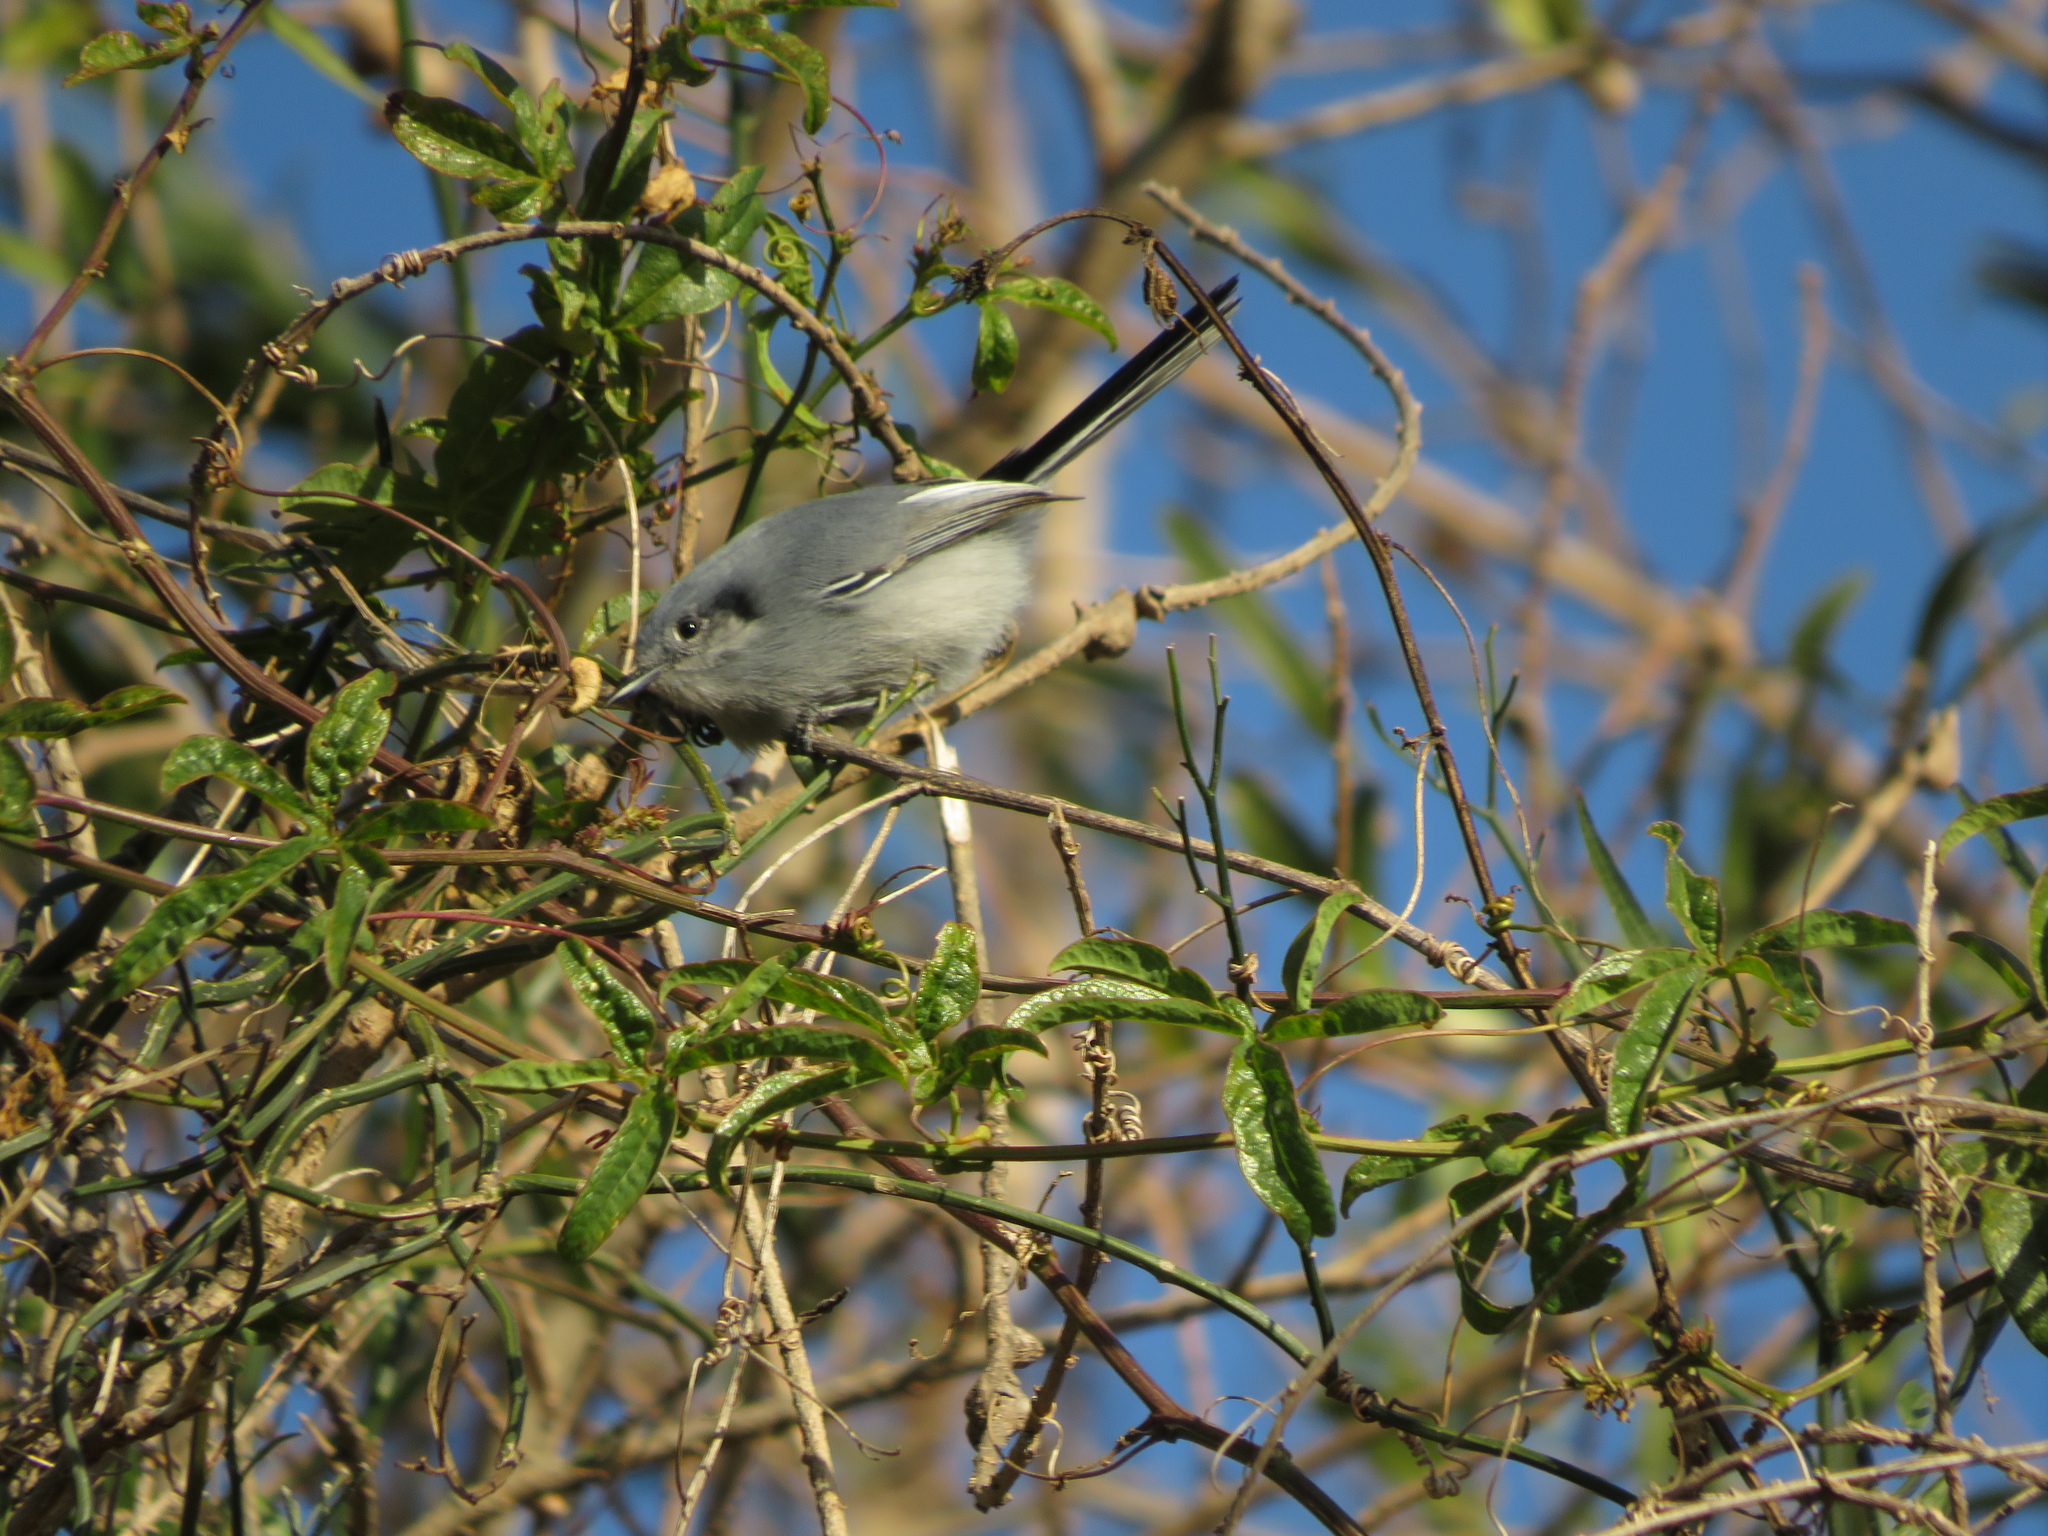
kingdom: Animalia
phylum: Chordata
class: Aves
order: Passeriformes
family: Polioptilidae
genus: Polioptila
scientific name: Polioptila dumicola
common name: Masked gnatcatcher
